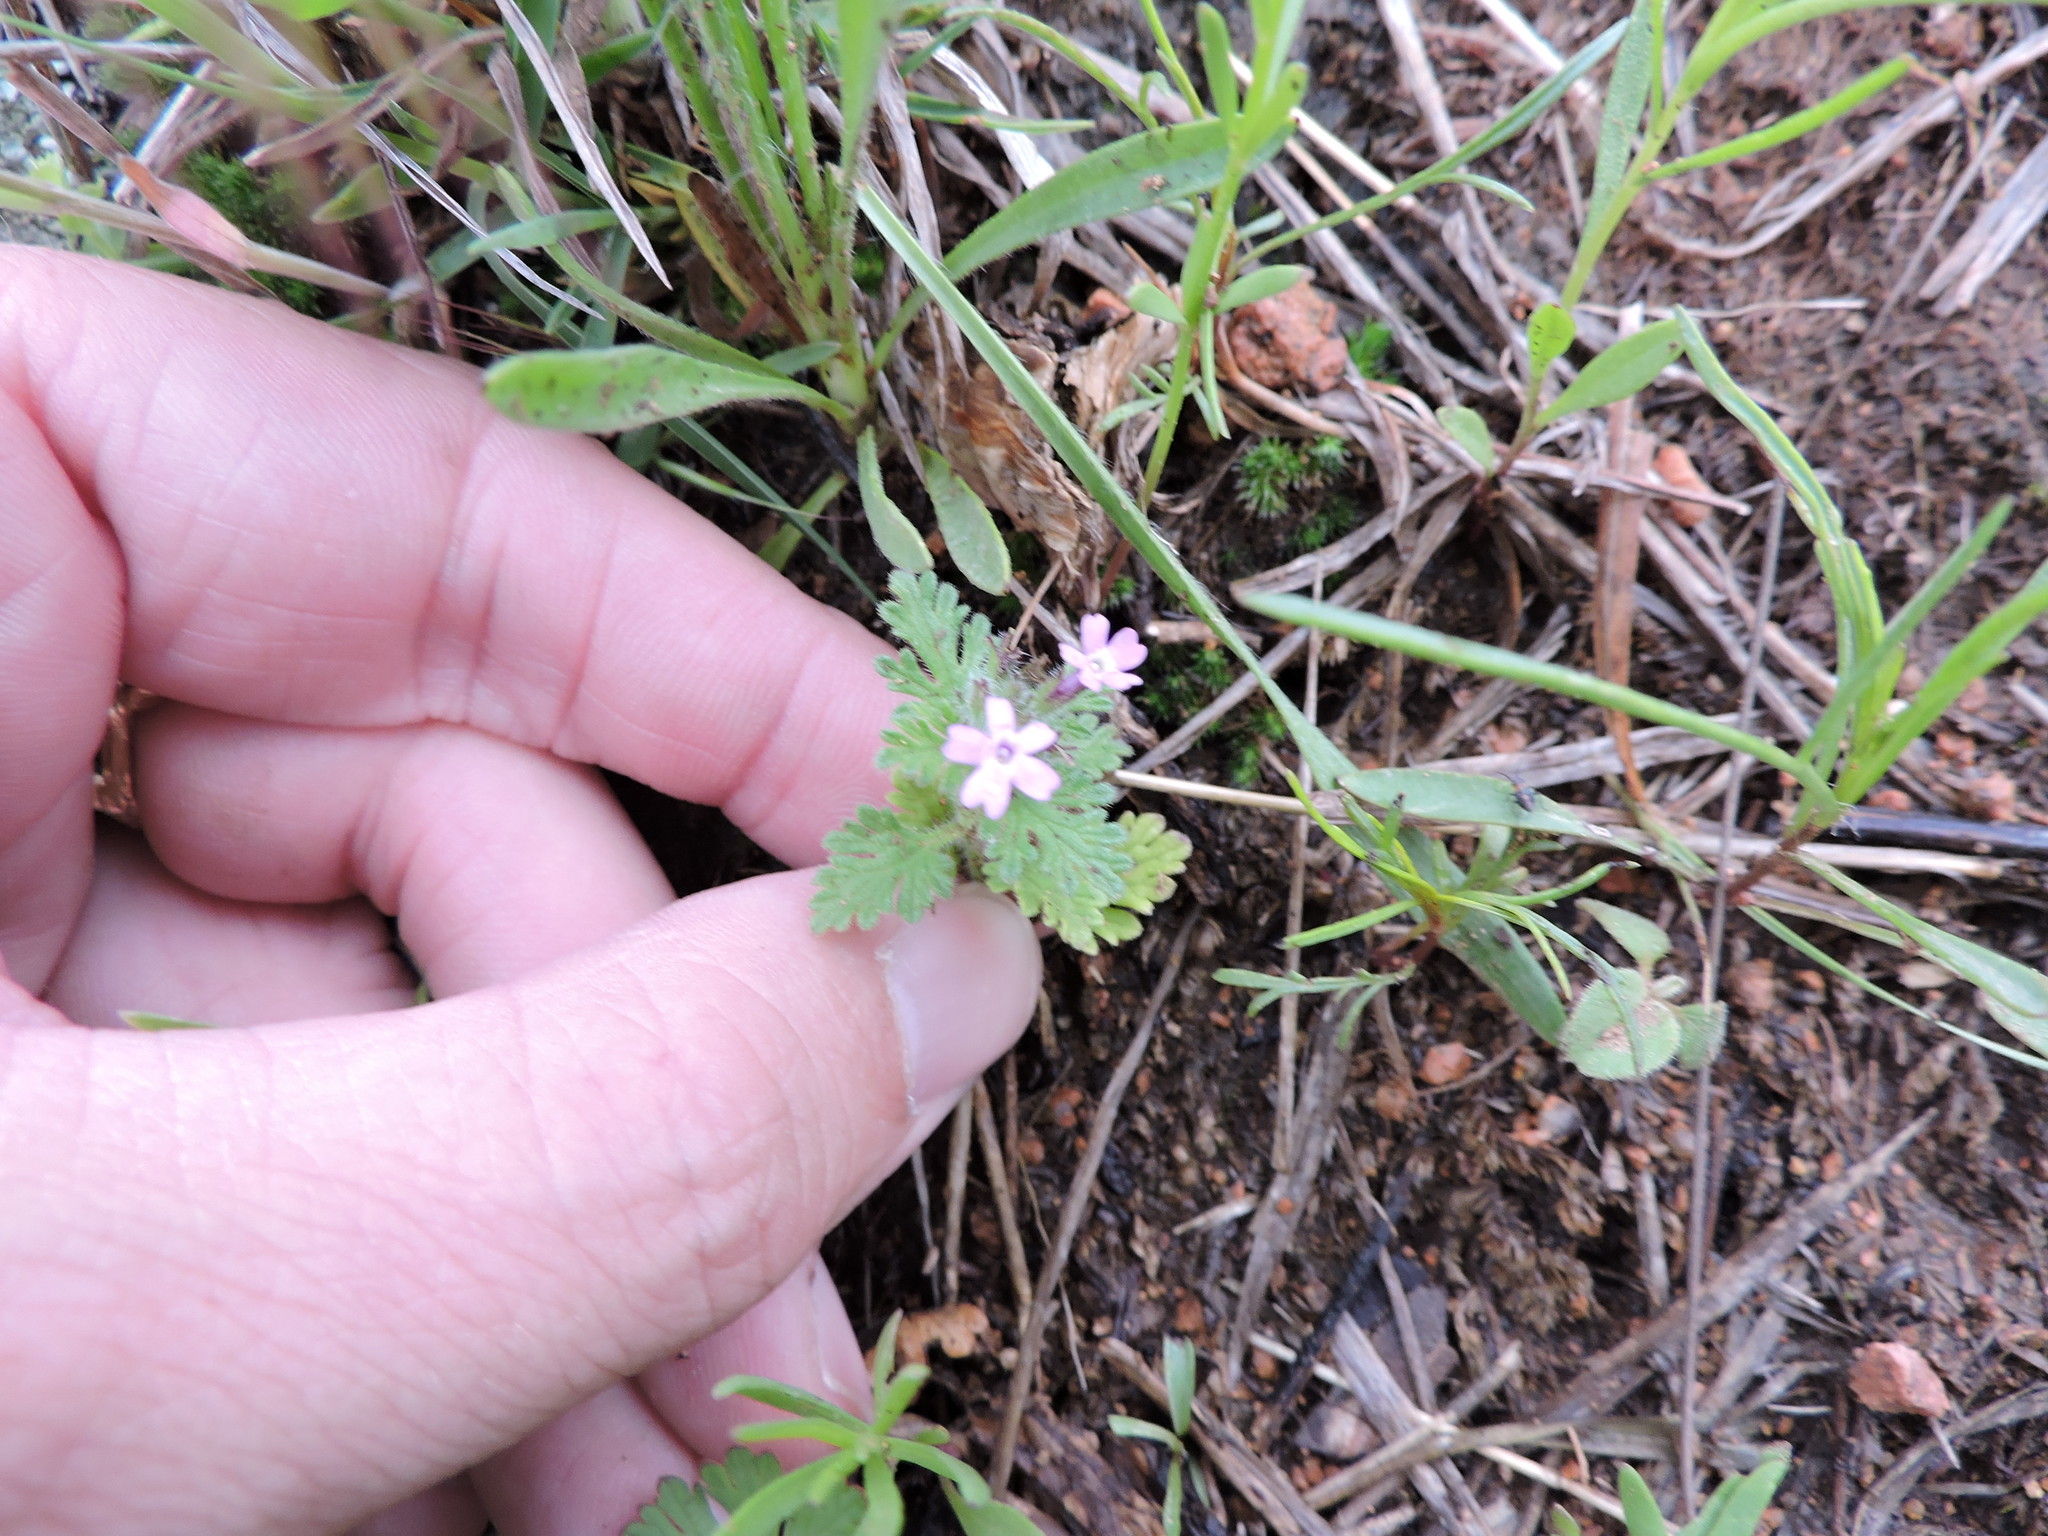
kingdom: Plantae
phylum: Tracheophyta
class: Magnoliopsida
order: Lamiales
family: Verbenaceae
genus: Verbena
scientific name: Verbena pumila
